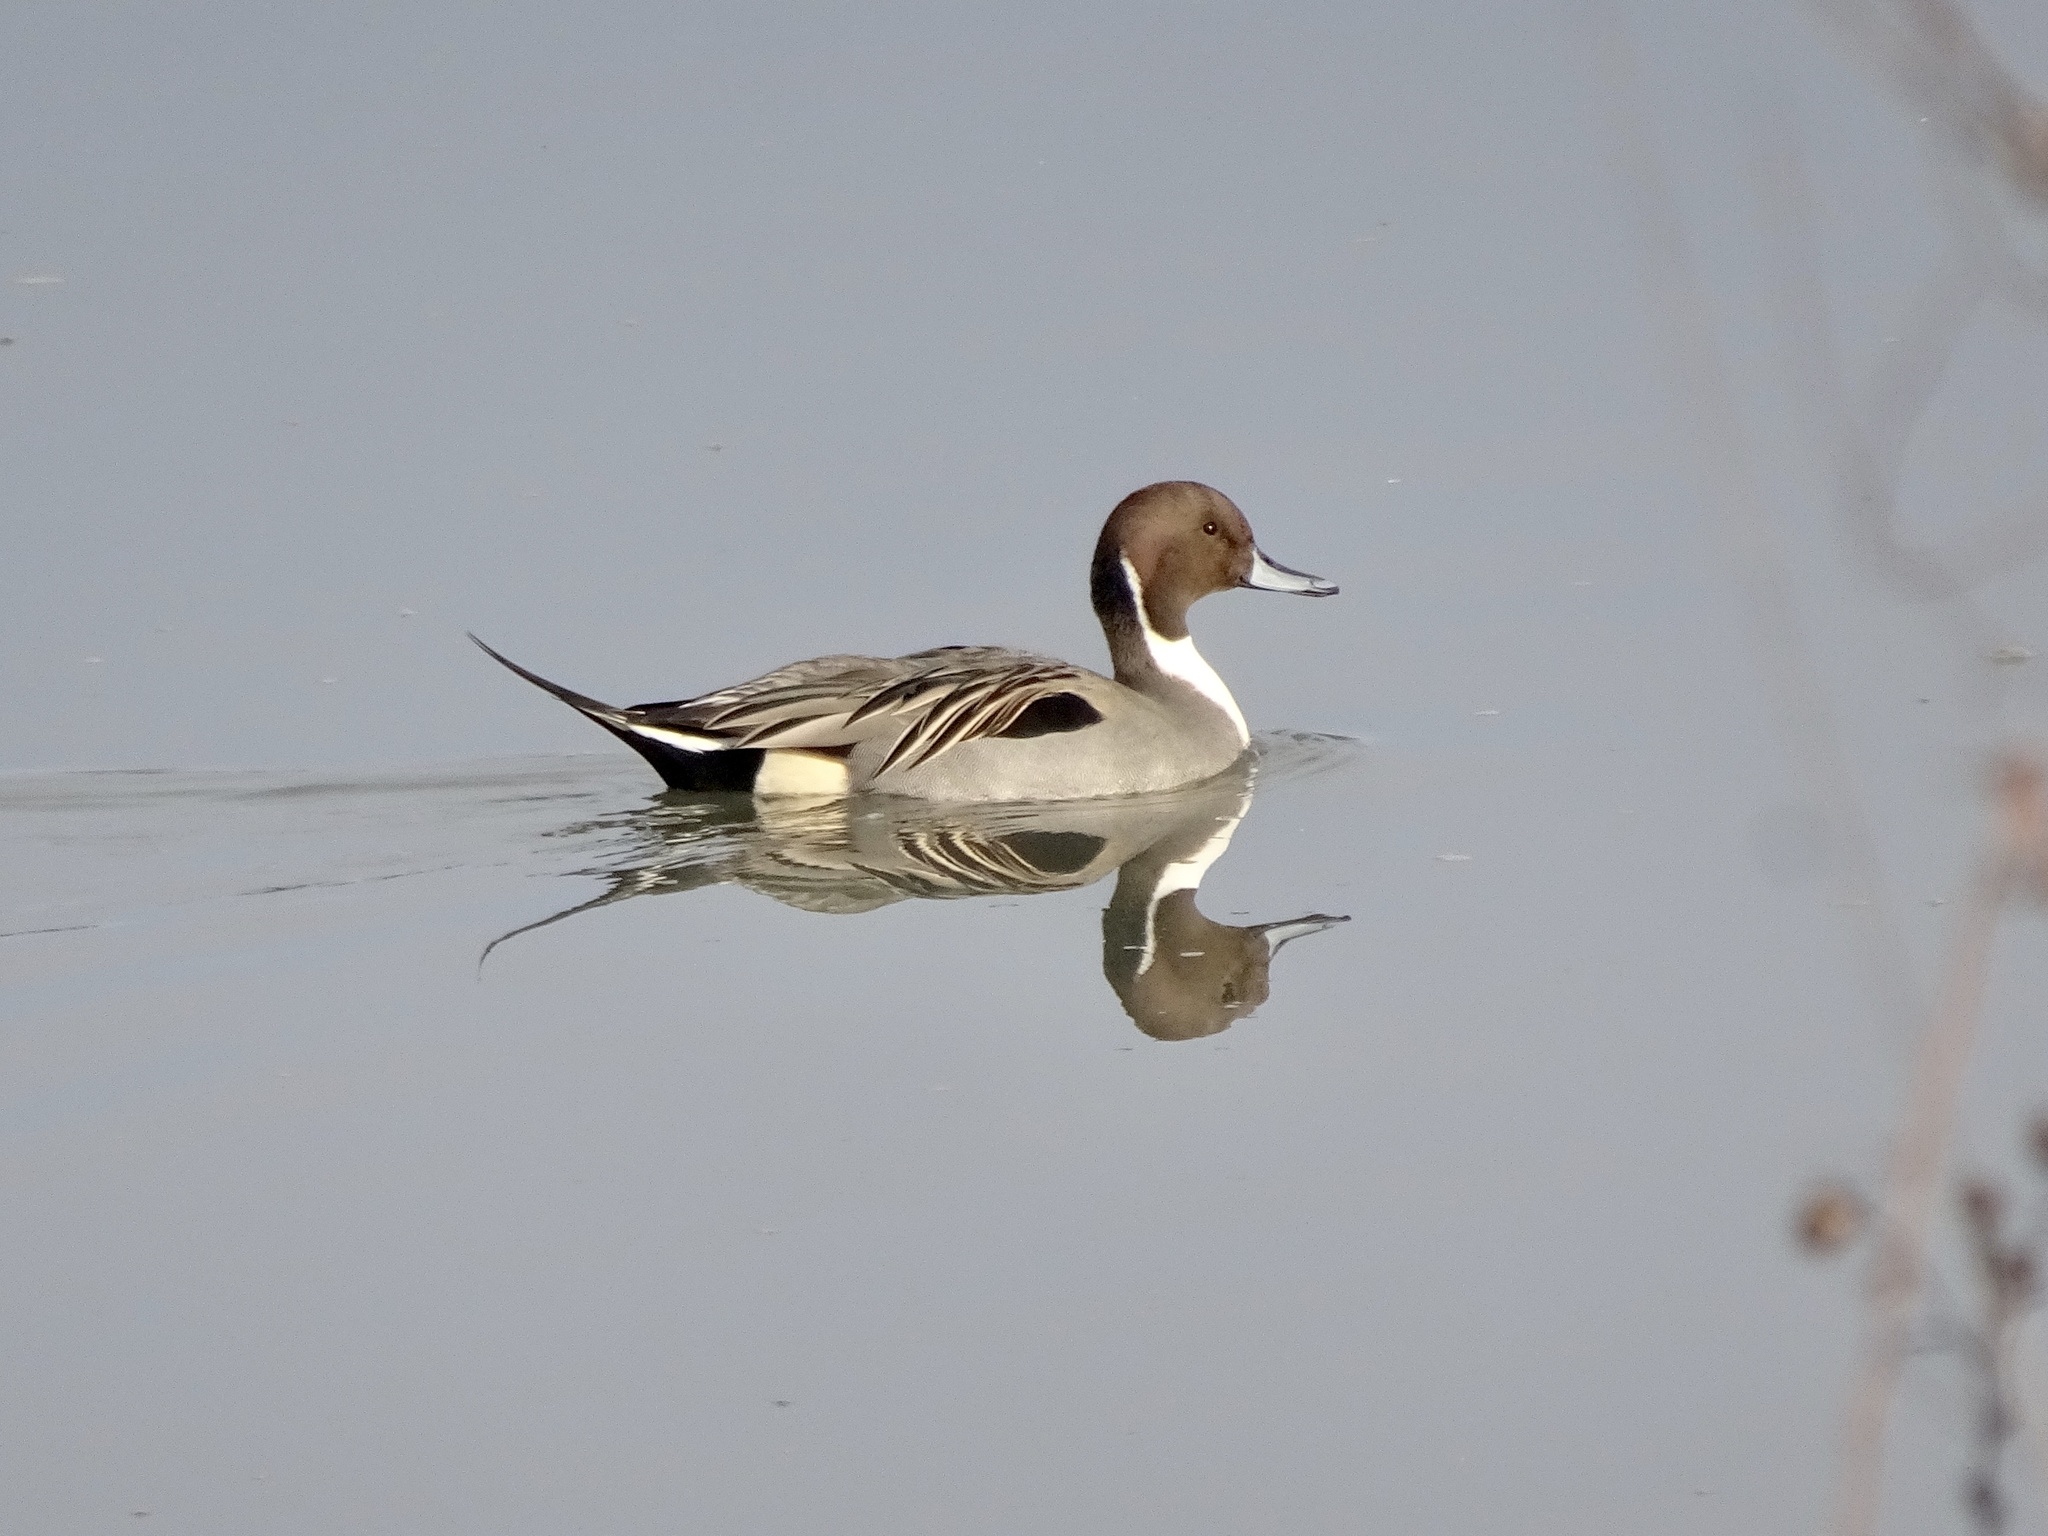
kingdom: Animalia
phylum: Chordata
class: Aves
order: Anseriformes
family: Anatidae
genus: Anas
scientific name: Anas acuta
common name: Northern pintail
